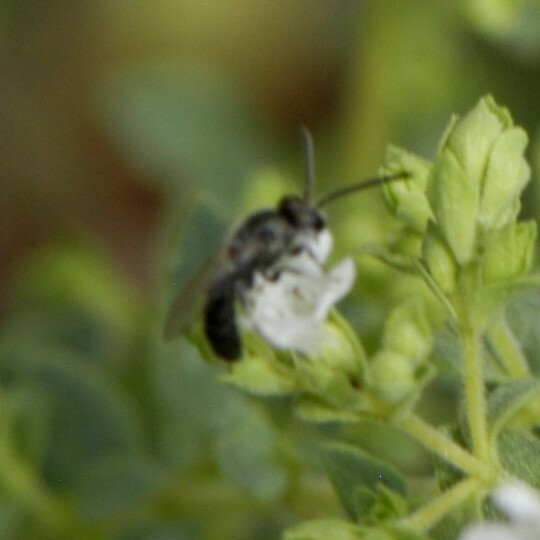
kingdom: Animalia
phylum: Arthropoda
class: Insecta
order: Hymenoptera
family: Halictidae
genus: Dialictus
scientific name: Dialictus
